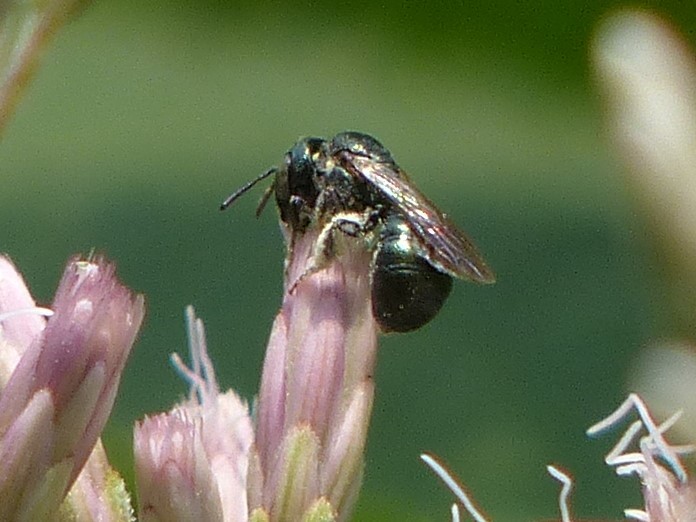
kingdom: Animalia
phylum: Arthropoda
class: Insecta
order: Hymenoptera
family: Apidae
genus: Zadontomerus
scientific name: Zadontomerus
